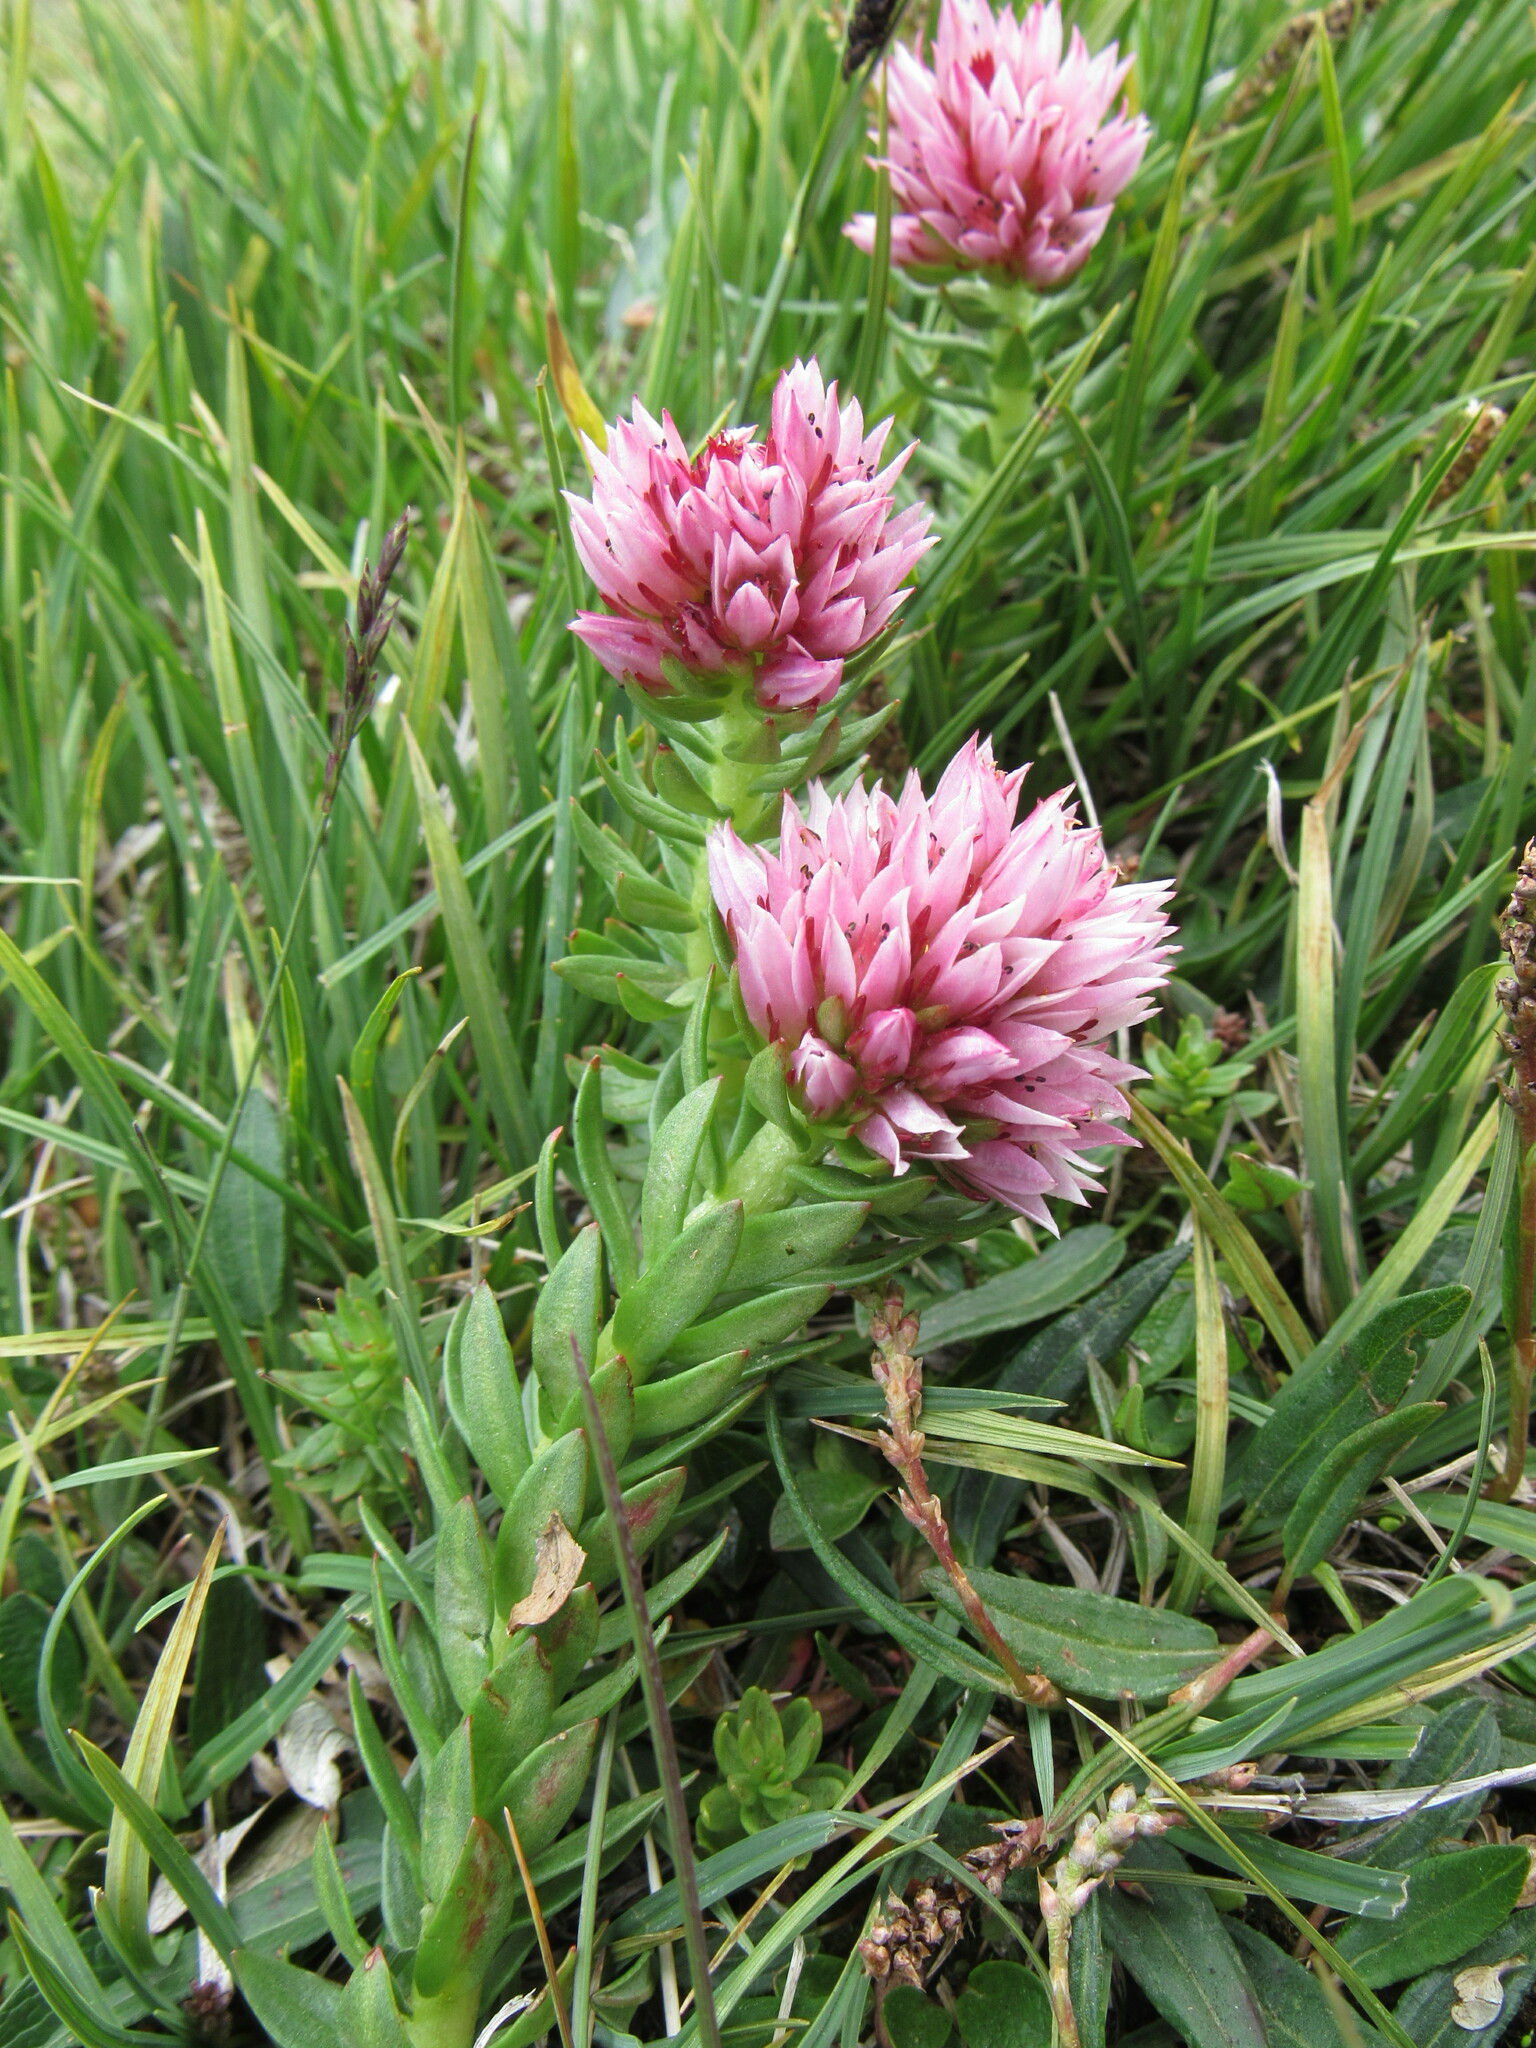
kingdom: Plantae
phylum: Tracheophyta
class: Magnoliopsida
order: Saxifragales
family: Crassulaceae
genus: Rhodiola
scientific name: Rhodiola rhodantha
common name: Red orpine
